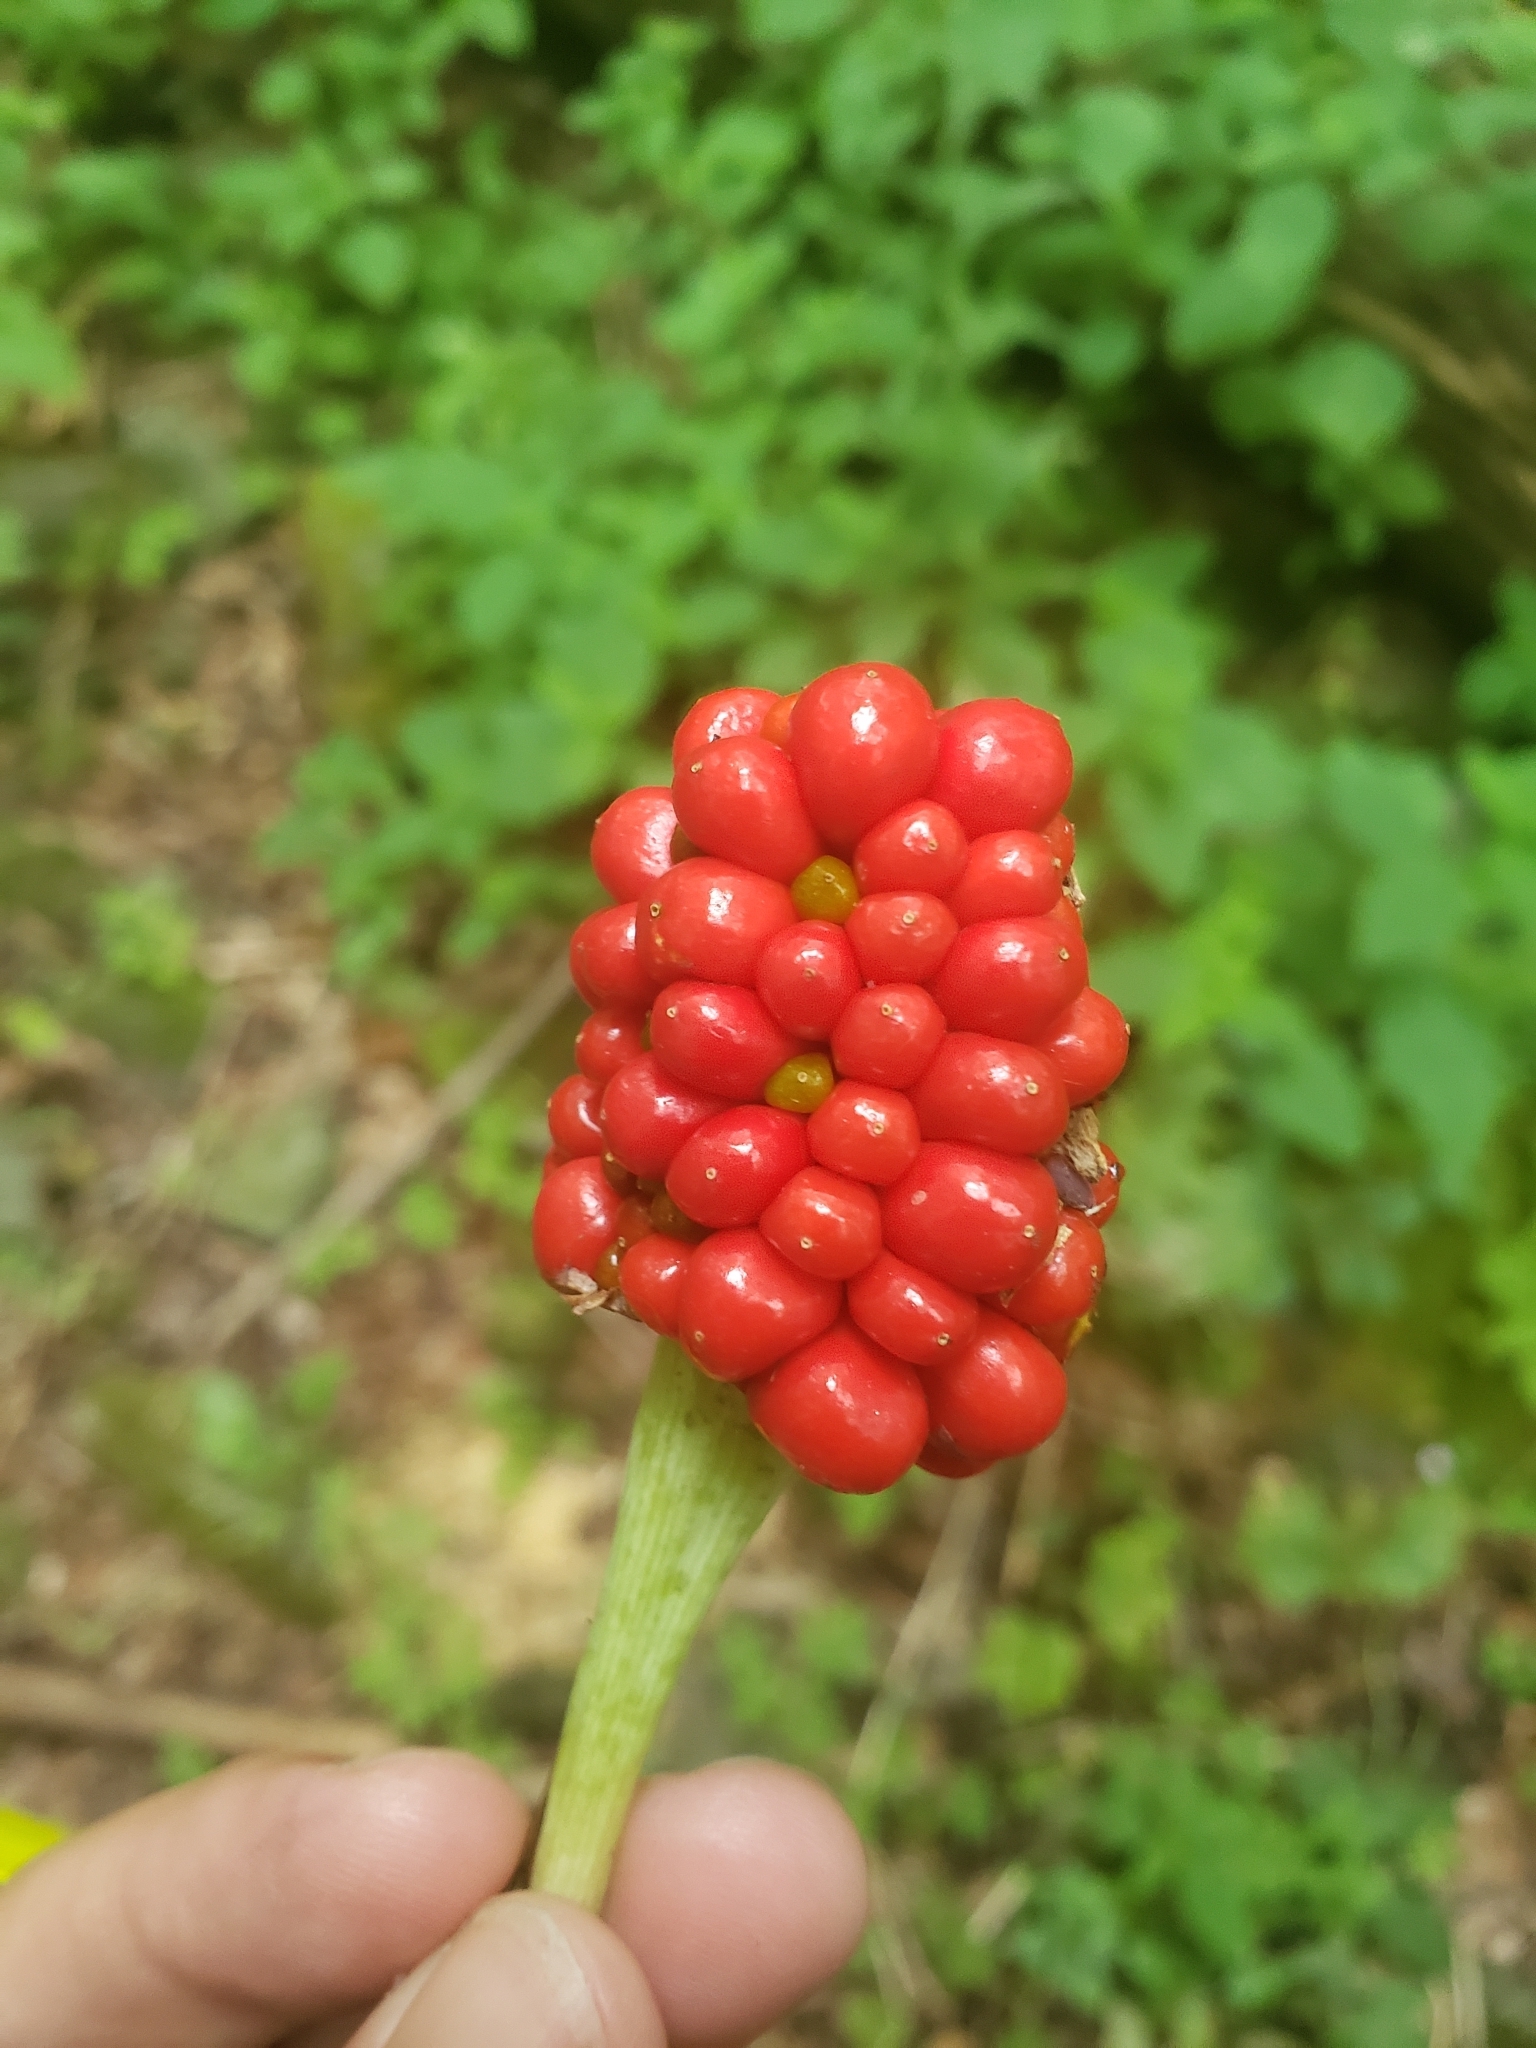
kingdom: Plantae
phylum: Tracheophyta
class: Liliopsida
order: Alismatales
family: Araceae
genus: Arisaema
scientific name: Arisaema triphyllum
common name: Jack-in-the-pulpit
